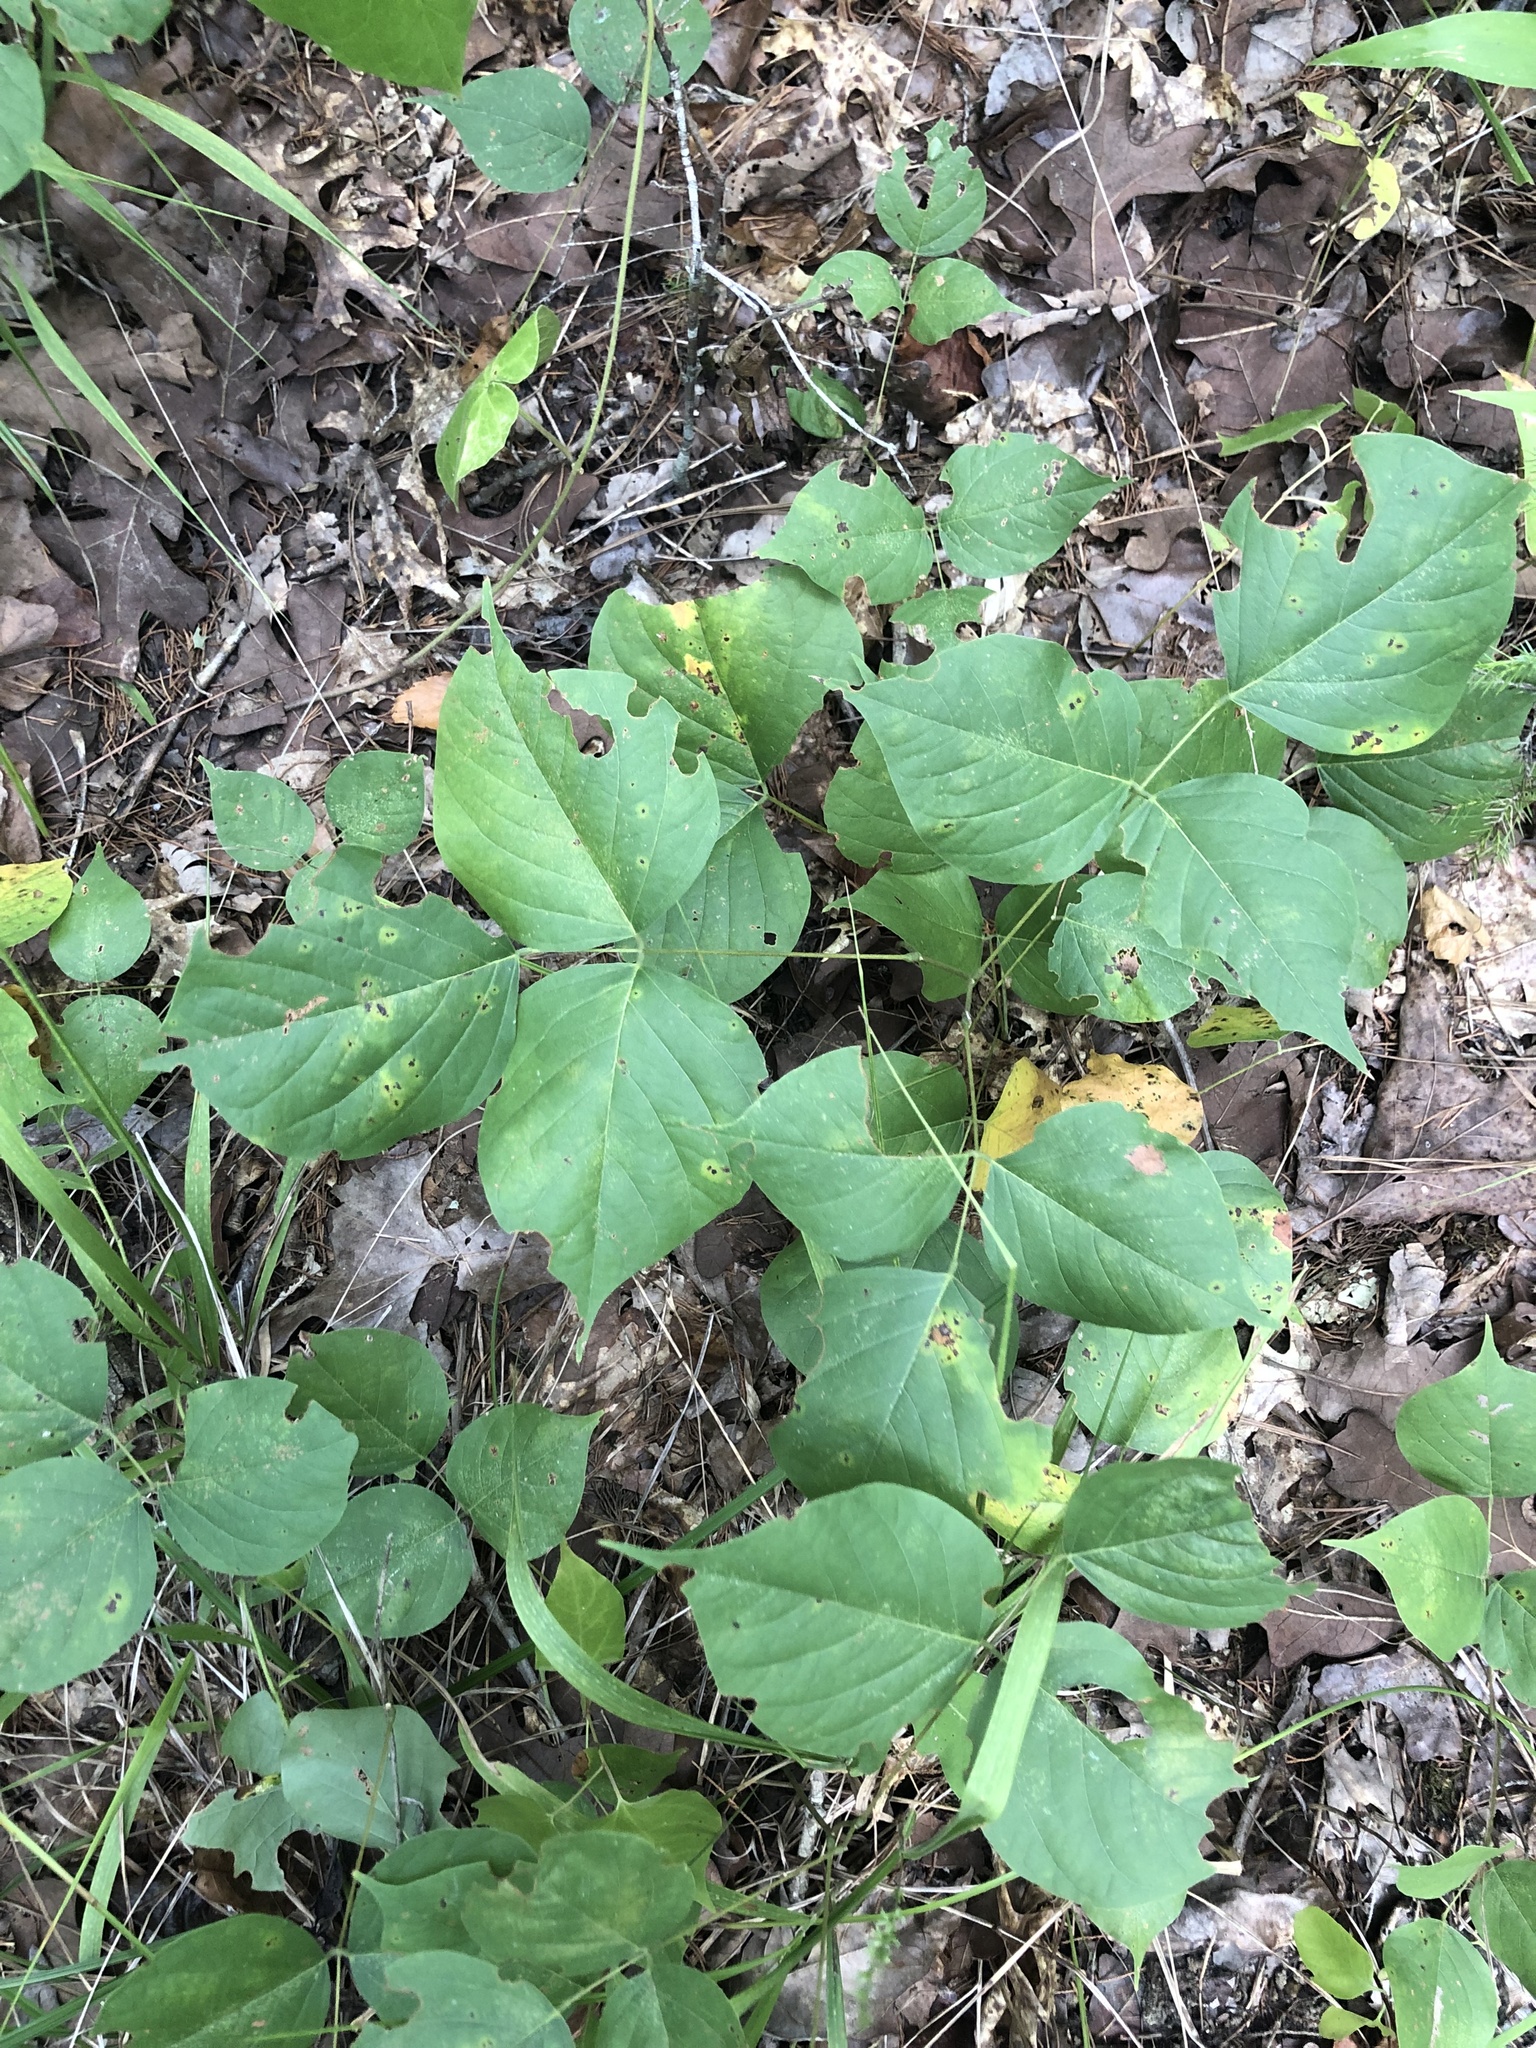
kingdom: Plantae
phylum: Tracheophyta
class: Magnoliopsida
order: Fabales
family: Fabaceae
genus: Lackeya
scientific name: Lackeya multiflora
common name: Boykin's clusterpea
